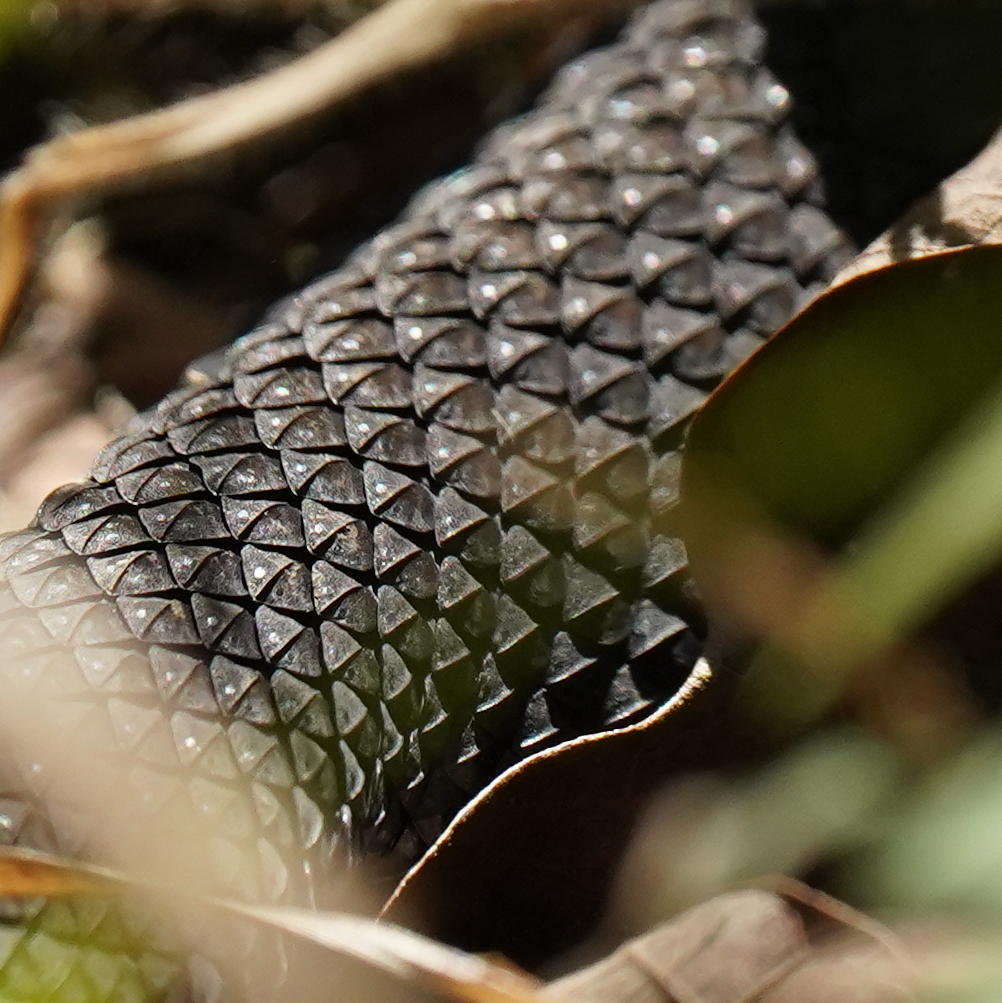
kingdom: Animalia
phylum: Chordata
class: Squamata
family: Viperidae
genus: Agkistrodon
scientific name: Agkistrodon piscivorus
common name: Cottonmouth
